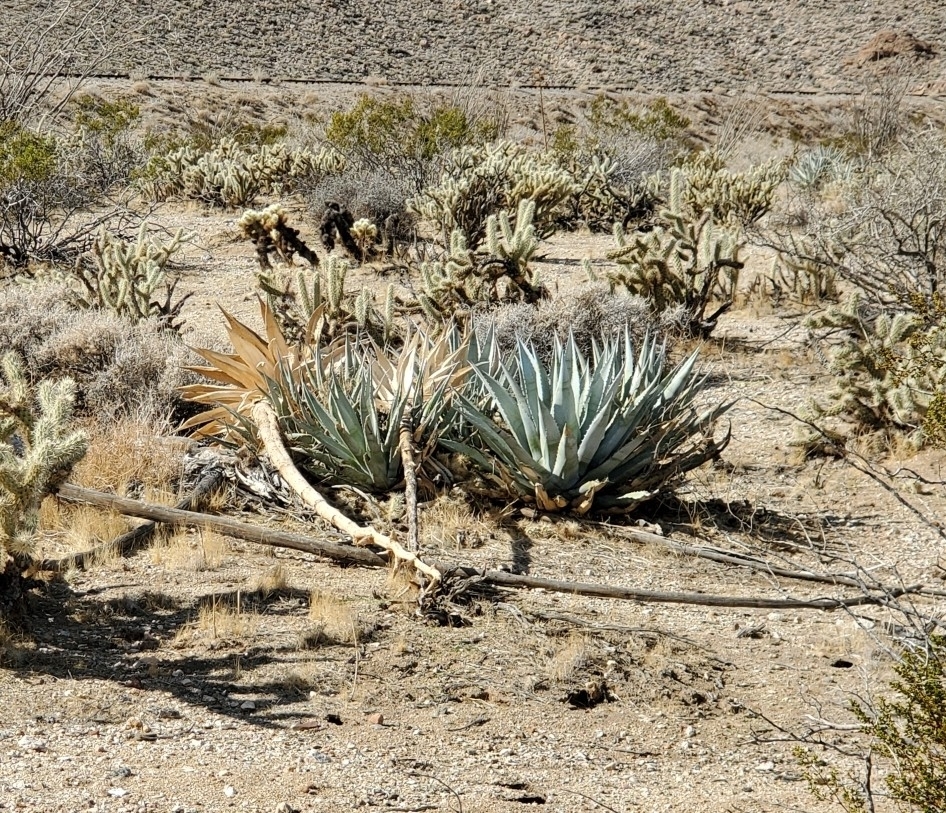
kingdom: Plantae
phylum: Tracheophyta
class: Liliopsida
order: Asparagales
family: Asparagaceae
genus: Agave
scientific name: Agave deserti
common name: Desert agave
